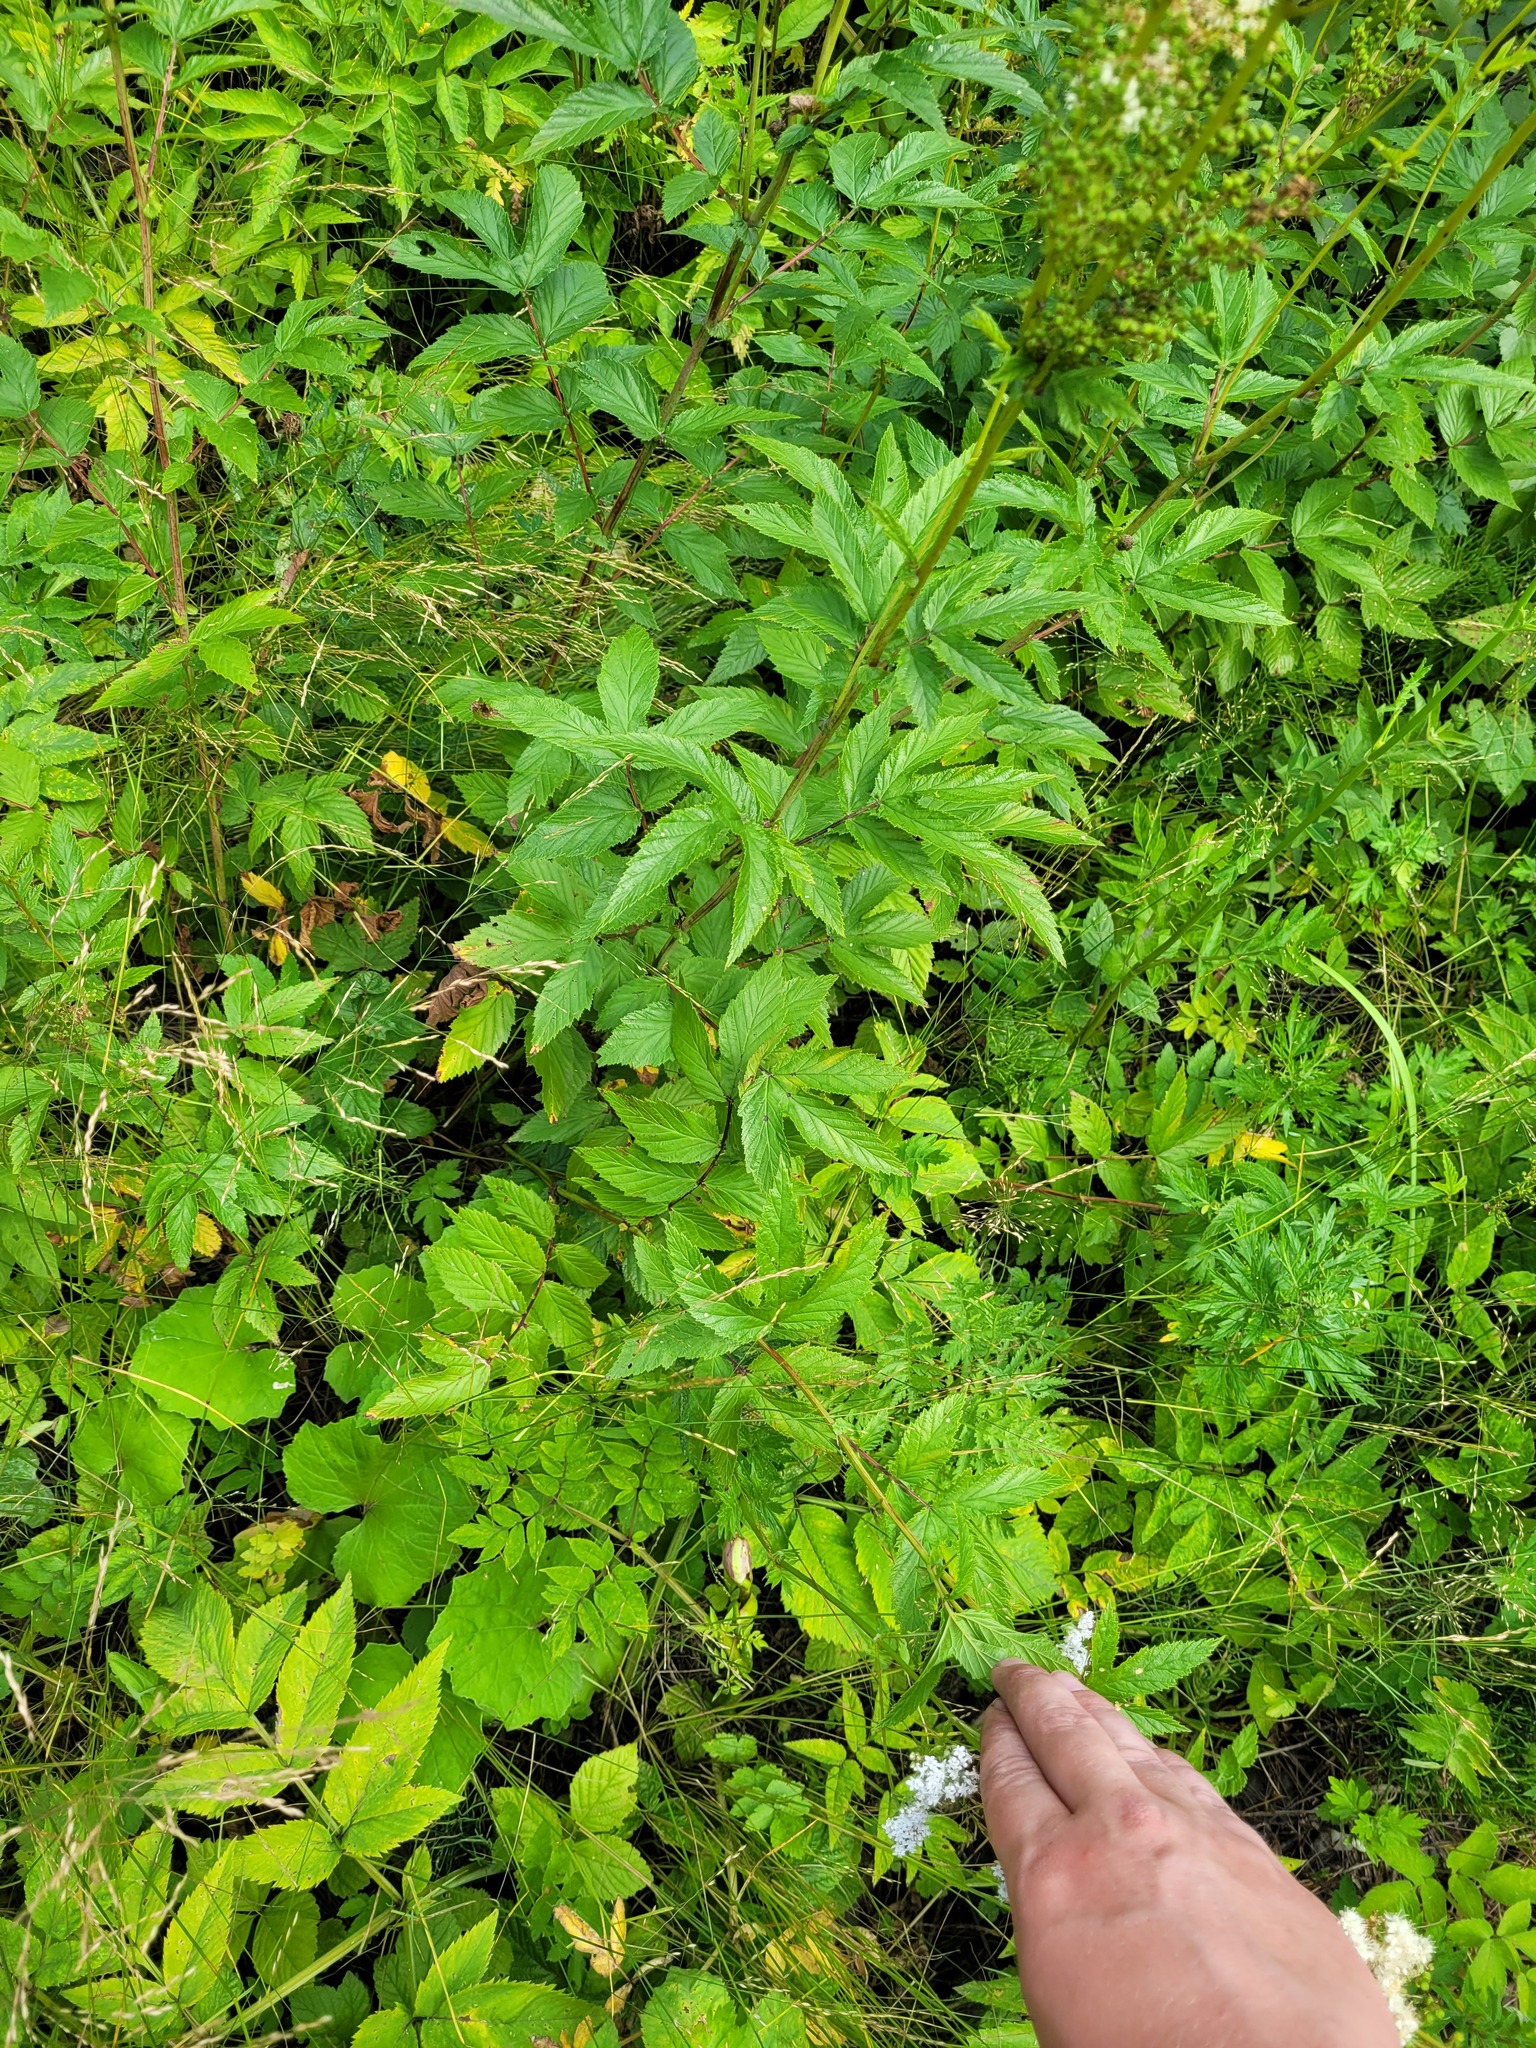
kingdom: Plantae
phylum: Tracheophyta
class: Magnoliopsida
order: Rosales
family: Rosaceae
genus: Filipendula
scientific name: Filipendula ulmaria
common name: Meadowsweet
